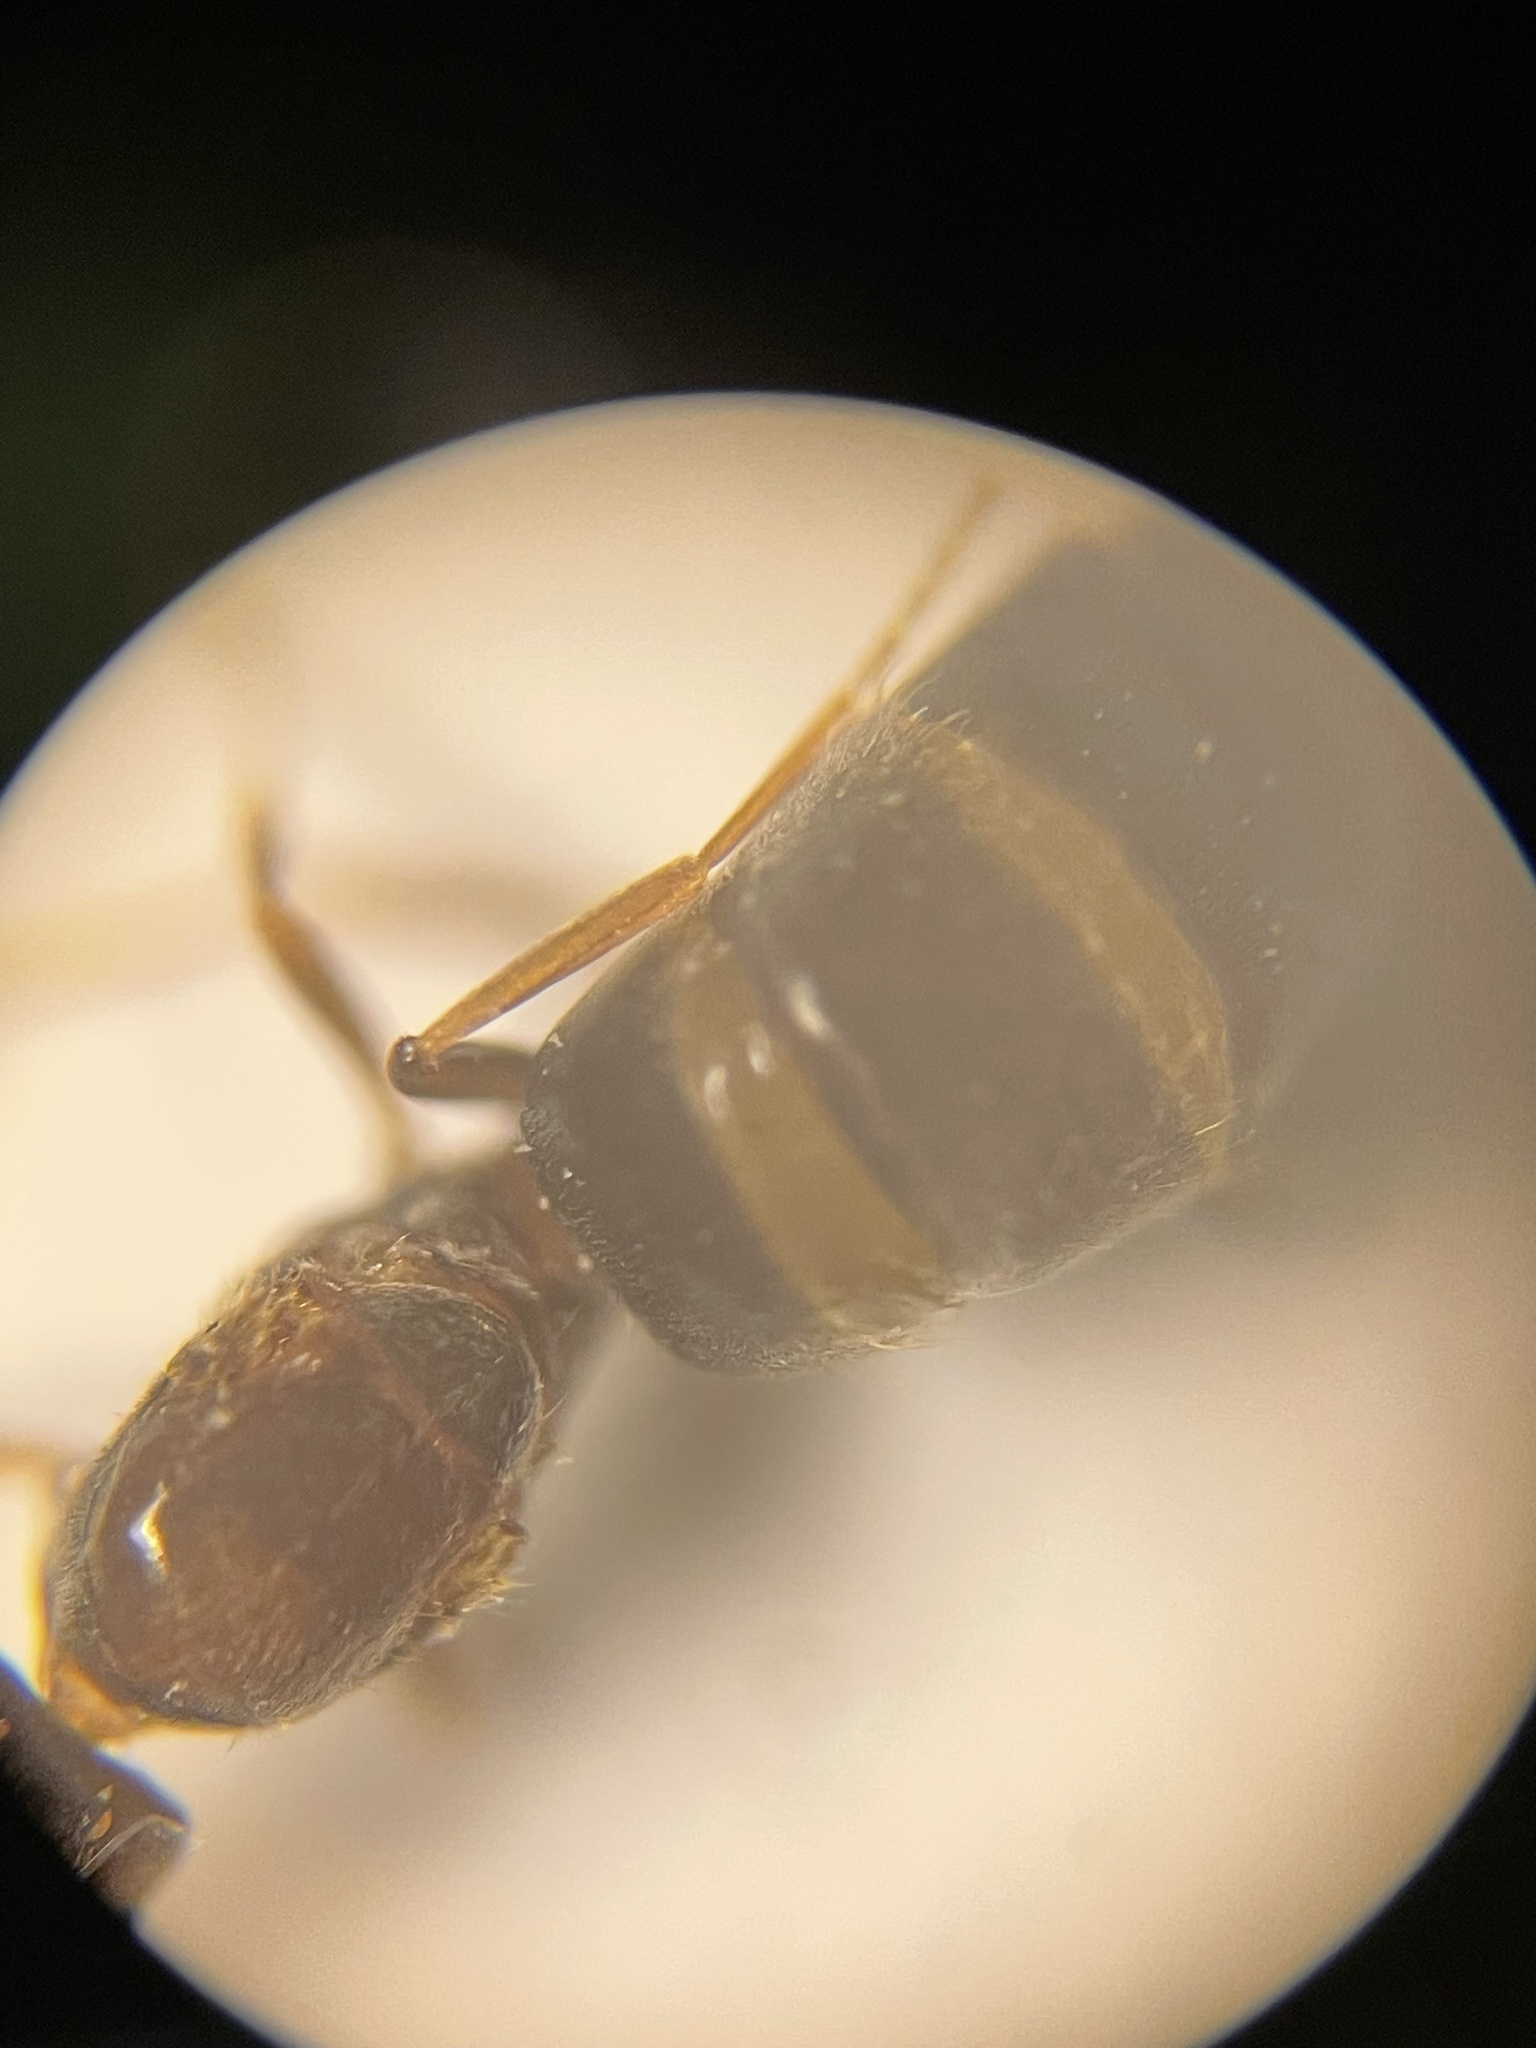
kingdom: Animalia
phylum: Arthropoda
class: Insecta
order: Hymenoptera
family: Formicidae
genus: Brachymyrmex
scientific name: Brachymyrmex patagonicus
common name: Dark rover ant
